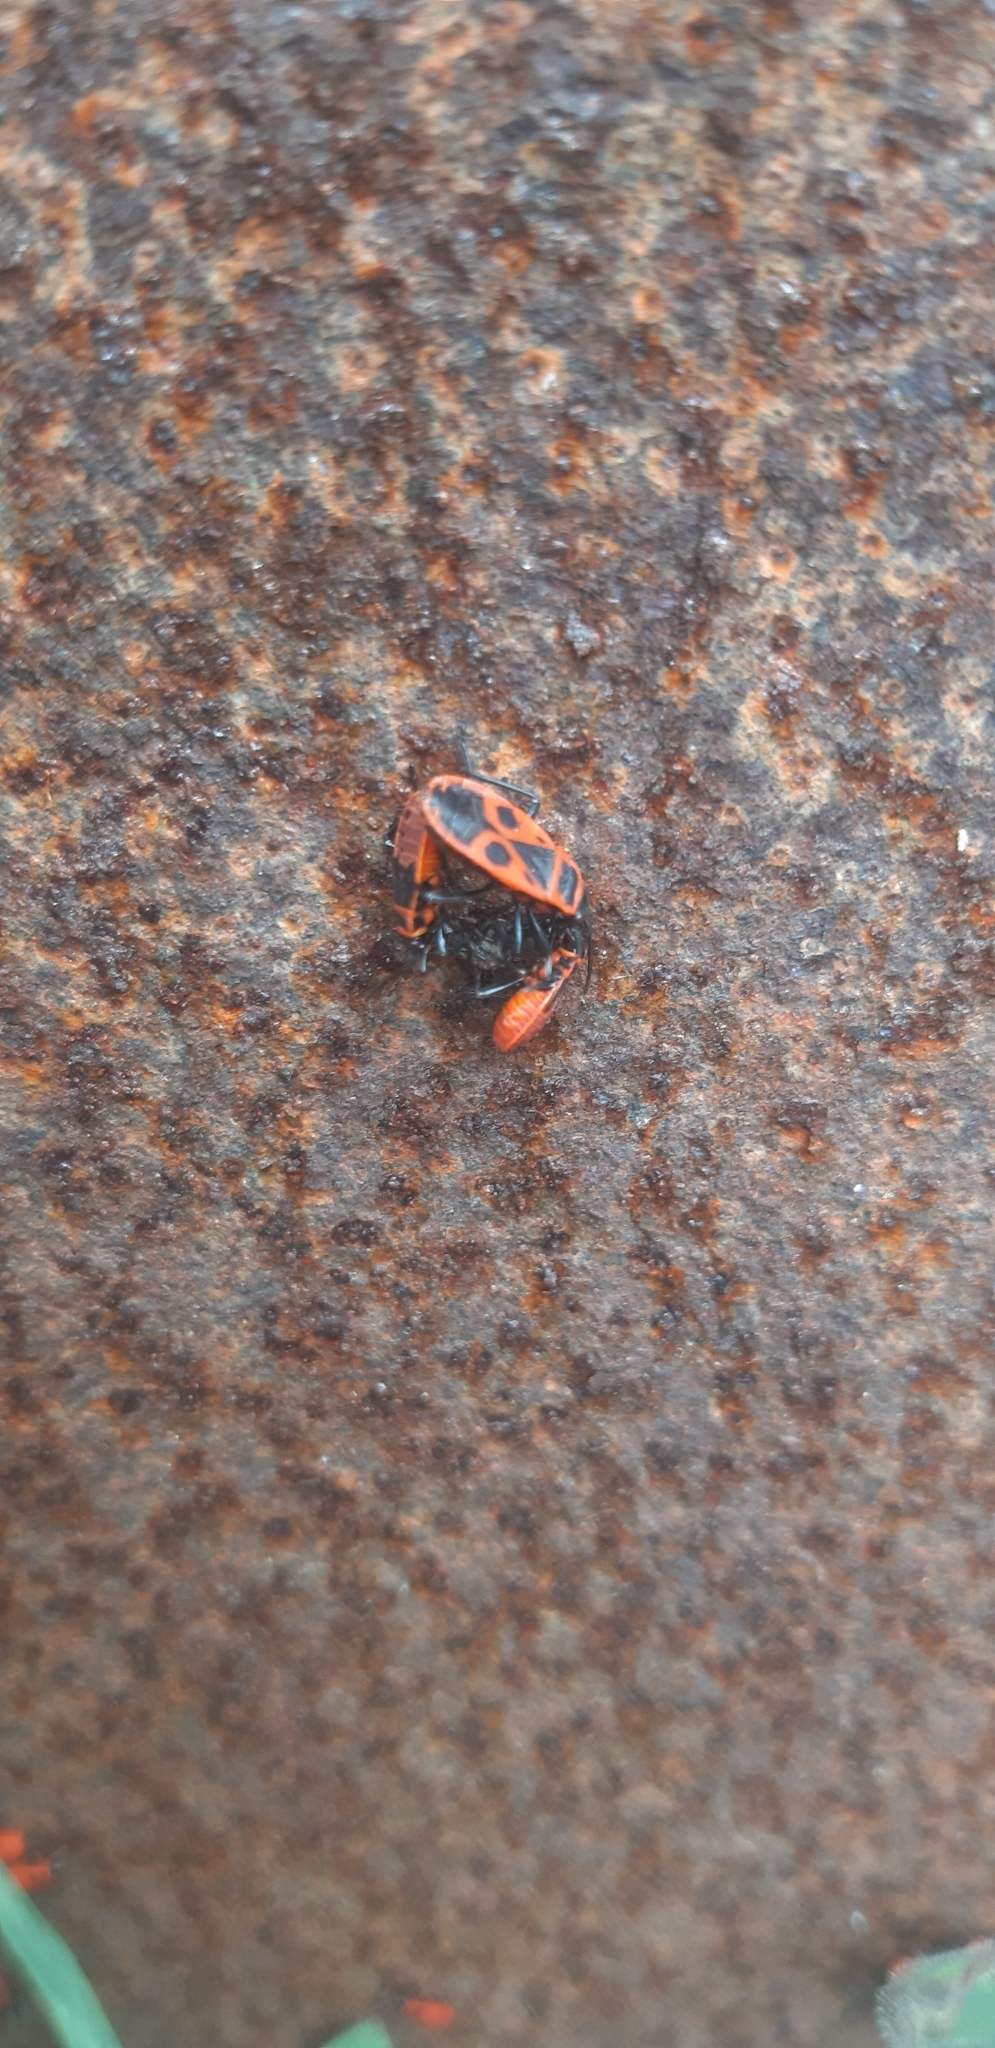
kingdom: Animalia
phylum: Arthropoda
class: Insecta
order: Hemiptera
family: Pyrrhocoridae
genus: Pyrrhocoris
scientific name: Pyrrhocoris apterus
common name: Firebug
